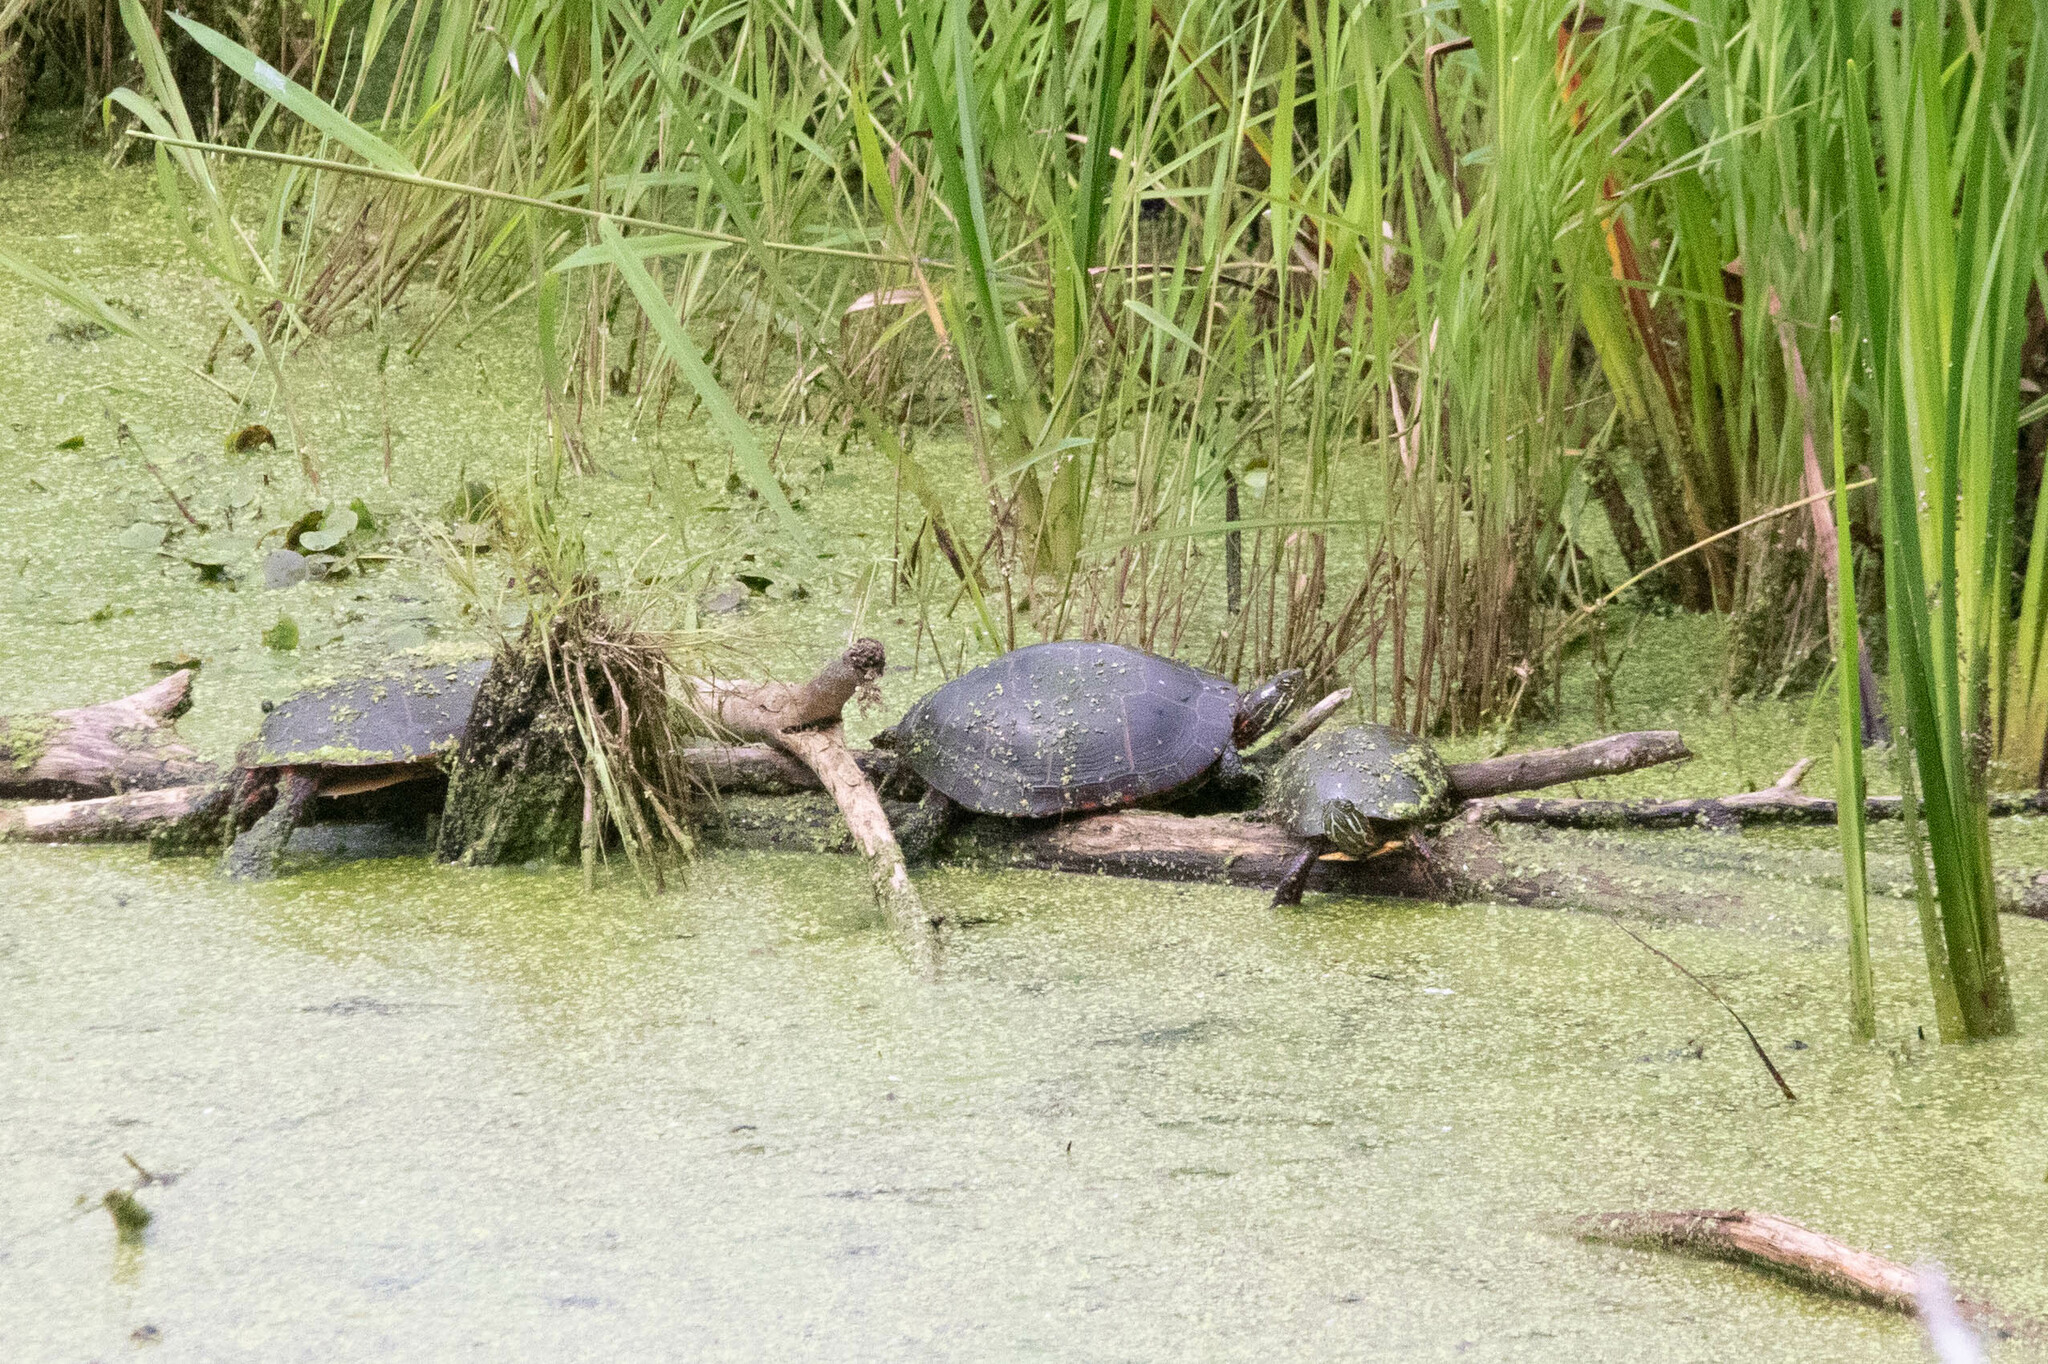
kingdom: Animalia
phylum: Chordata
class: Testudines
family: Emydidae
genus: Chrysemys
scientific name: Chrysemys picta
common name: Painted turtle
